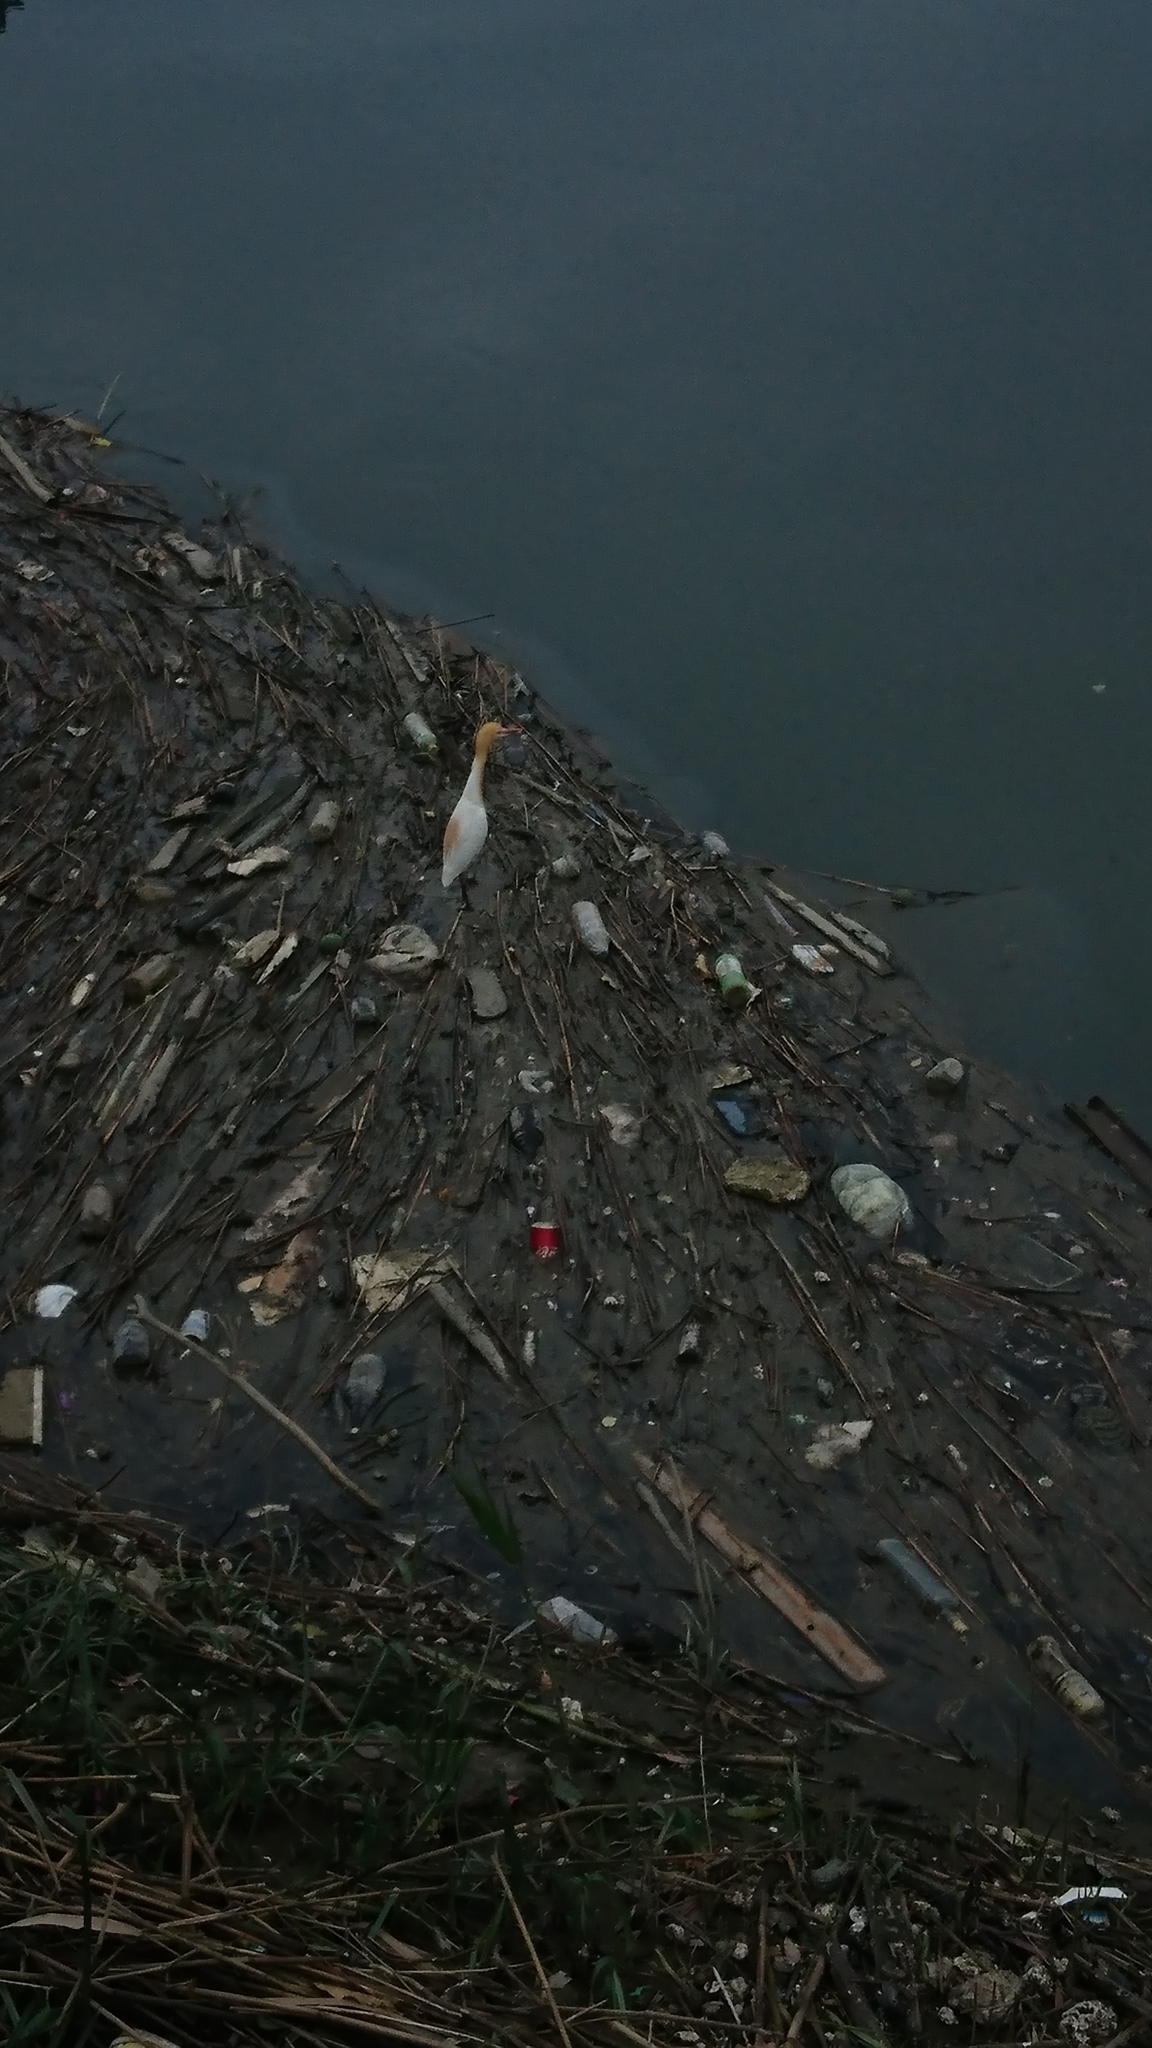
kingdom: Animalia
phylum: Chordata
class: Aves
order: Pelecaniformes
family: Ardeidae
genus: Bubulcus
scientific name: Bubulcus coromandus
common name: Eastern cattle egret
